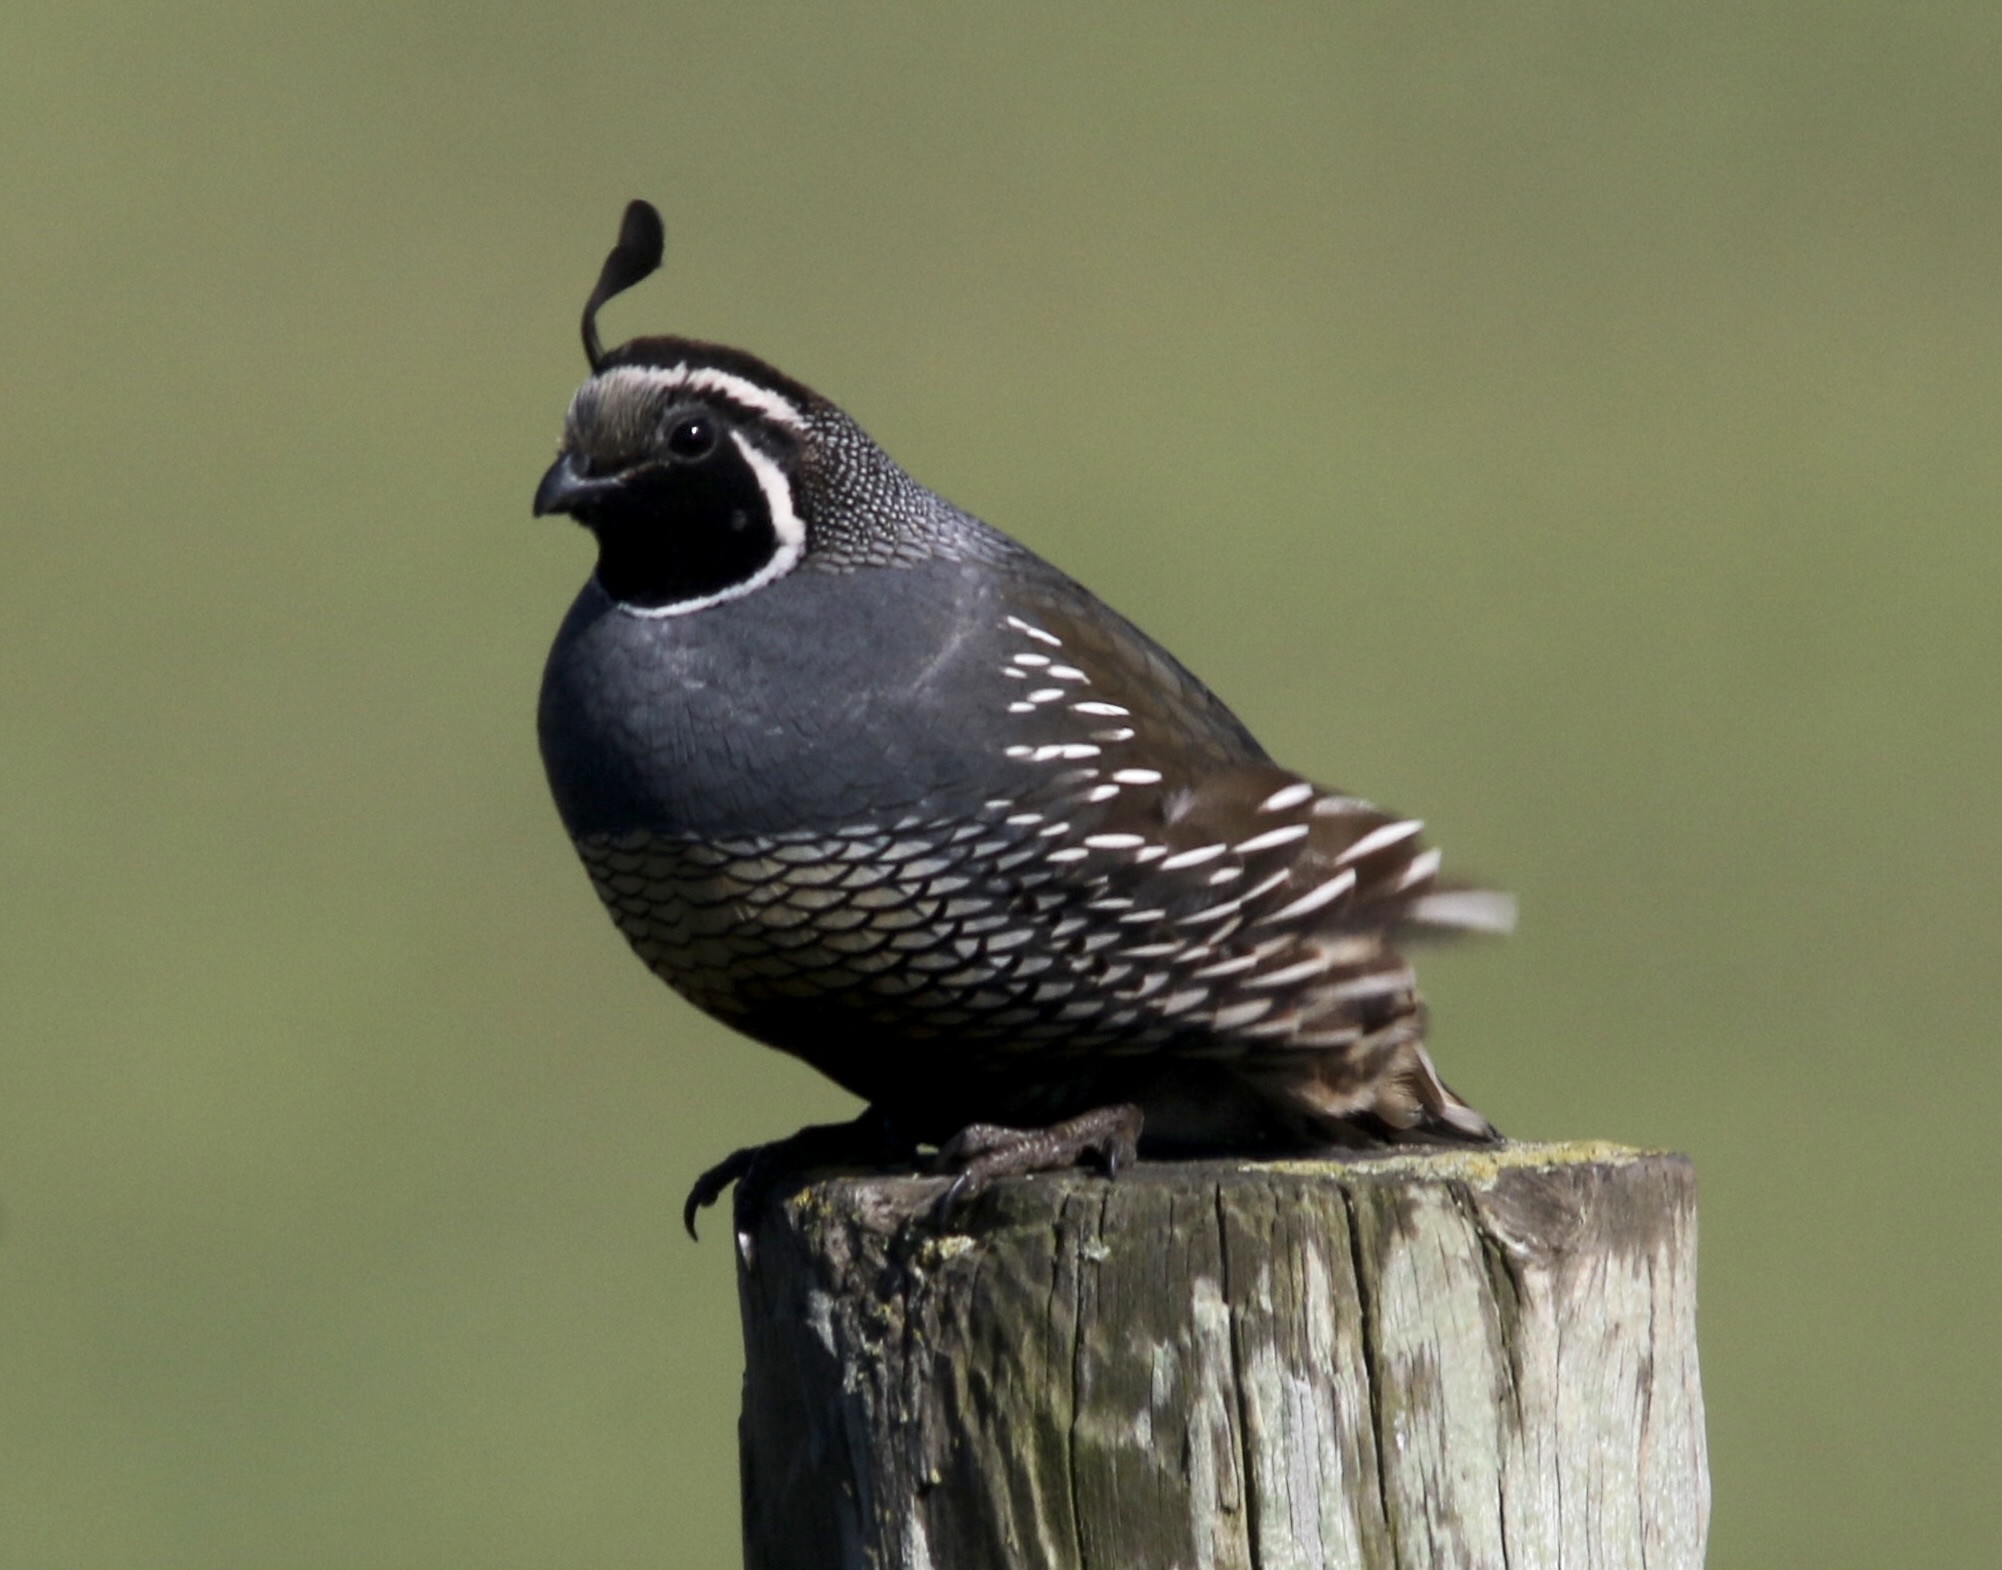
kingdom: Animalia
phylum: Chordata
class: Aves
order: Galliformes
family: Odontophoridae
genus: Callipepla
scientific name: Callipepla californica
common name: California quail
